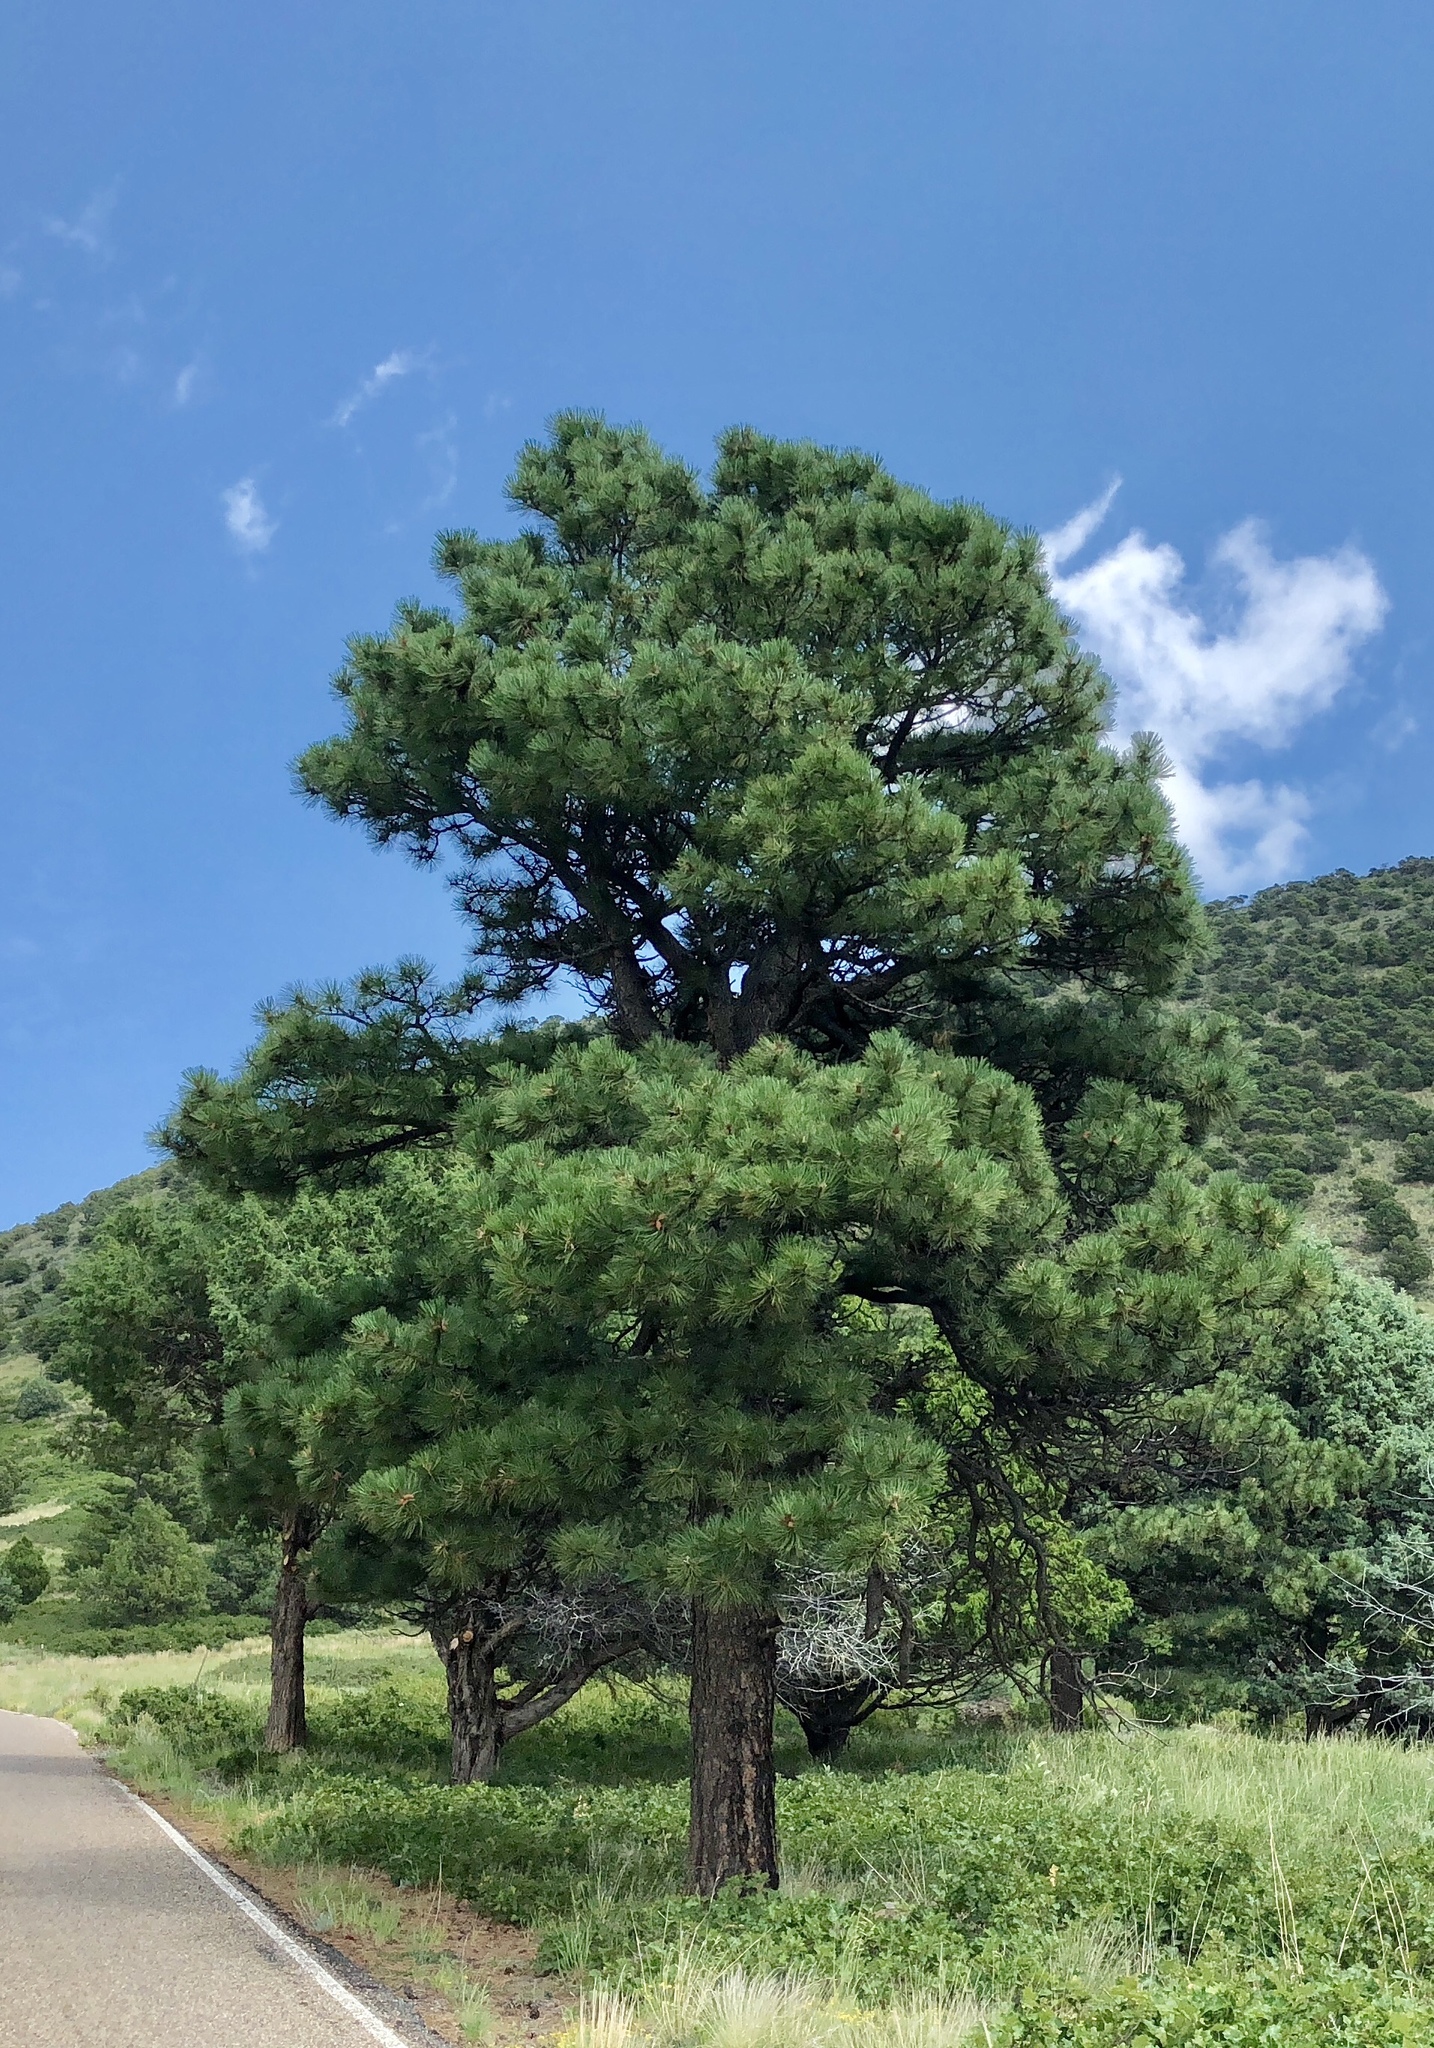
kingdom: Plantae
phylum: Tracheophyta
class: Pinopsida
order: Pinales
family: Pinaceae
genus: Pinus
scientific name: Pinus ponderosa
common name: Western yellow-pine
